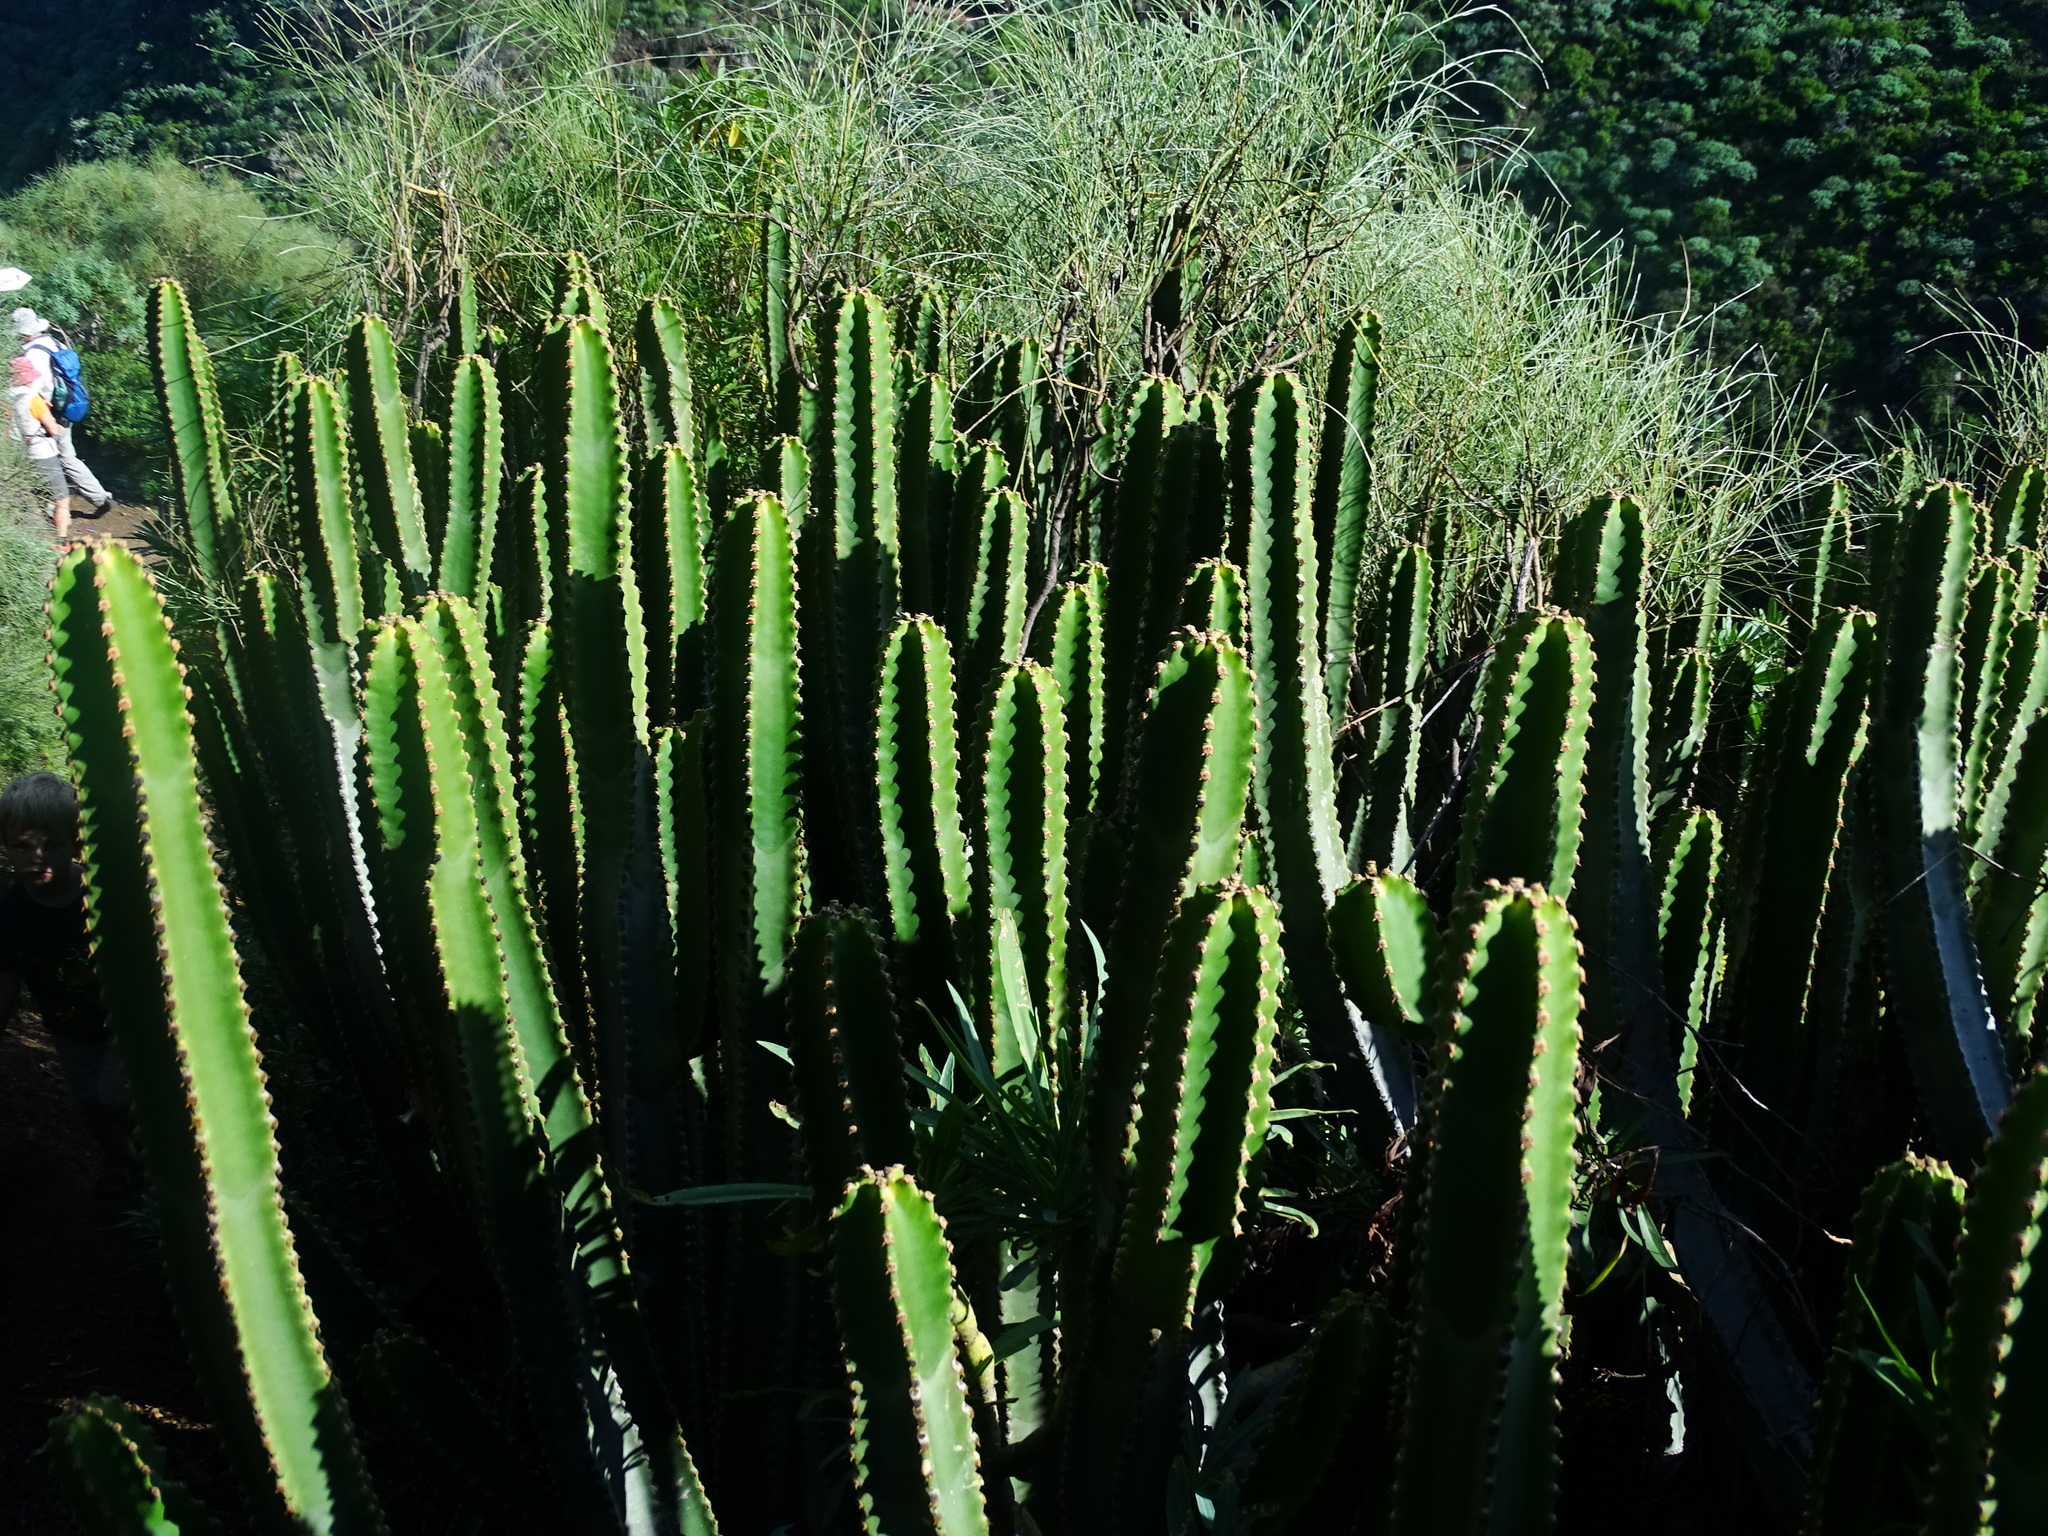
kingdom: Plantae
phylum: Tracheophyta
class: Magnoliopsida
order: Malpighiales
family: Euphorbiaceae
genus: Euphorbia
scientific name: Euphorbia canariensis
